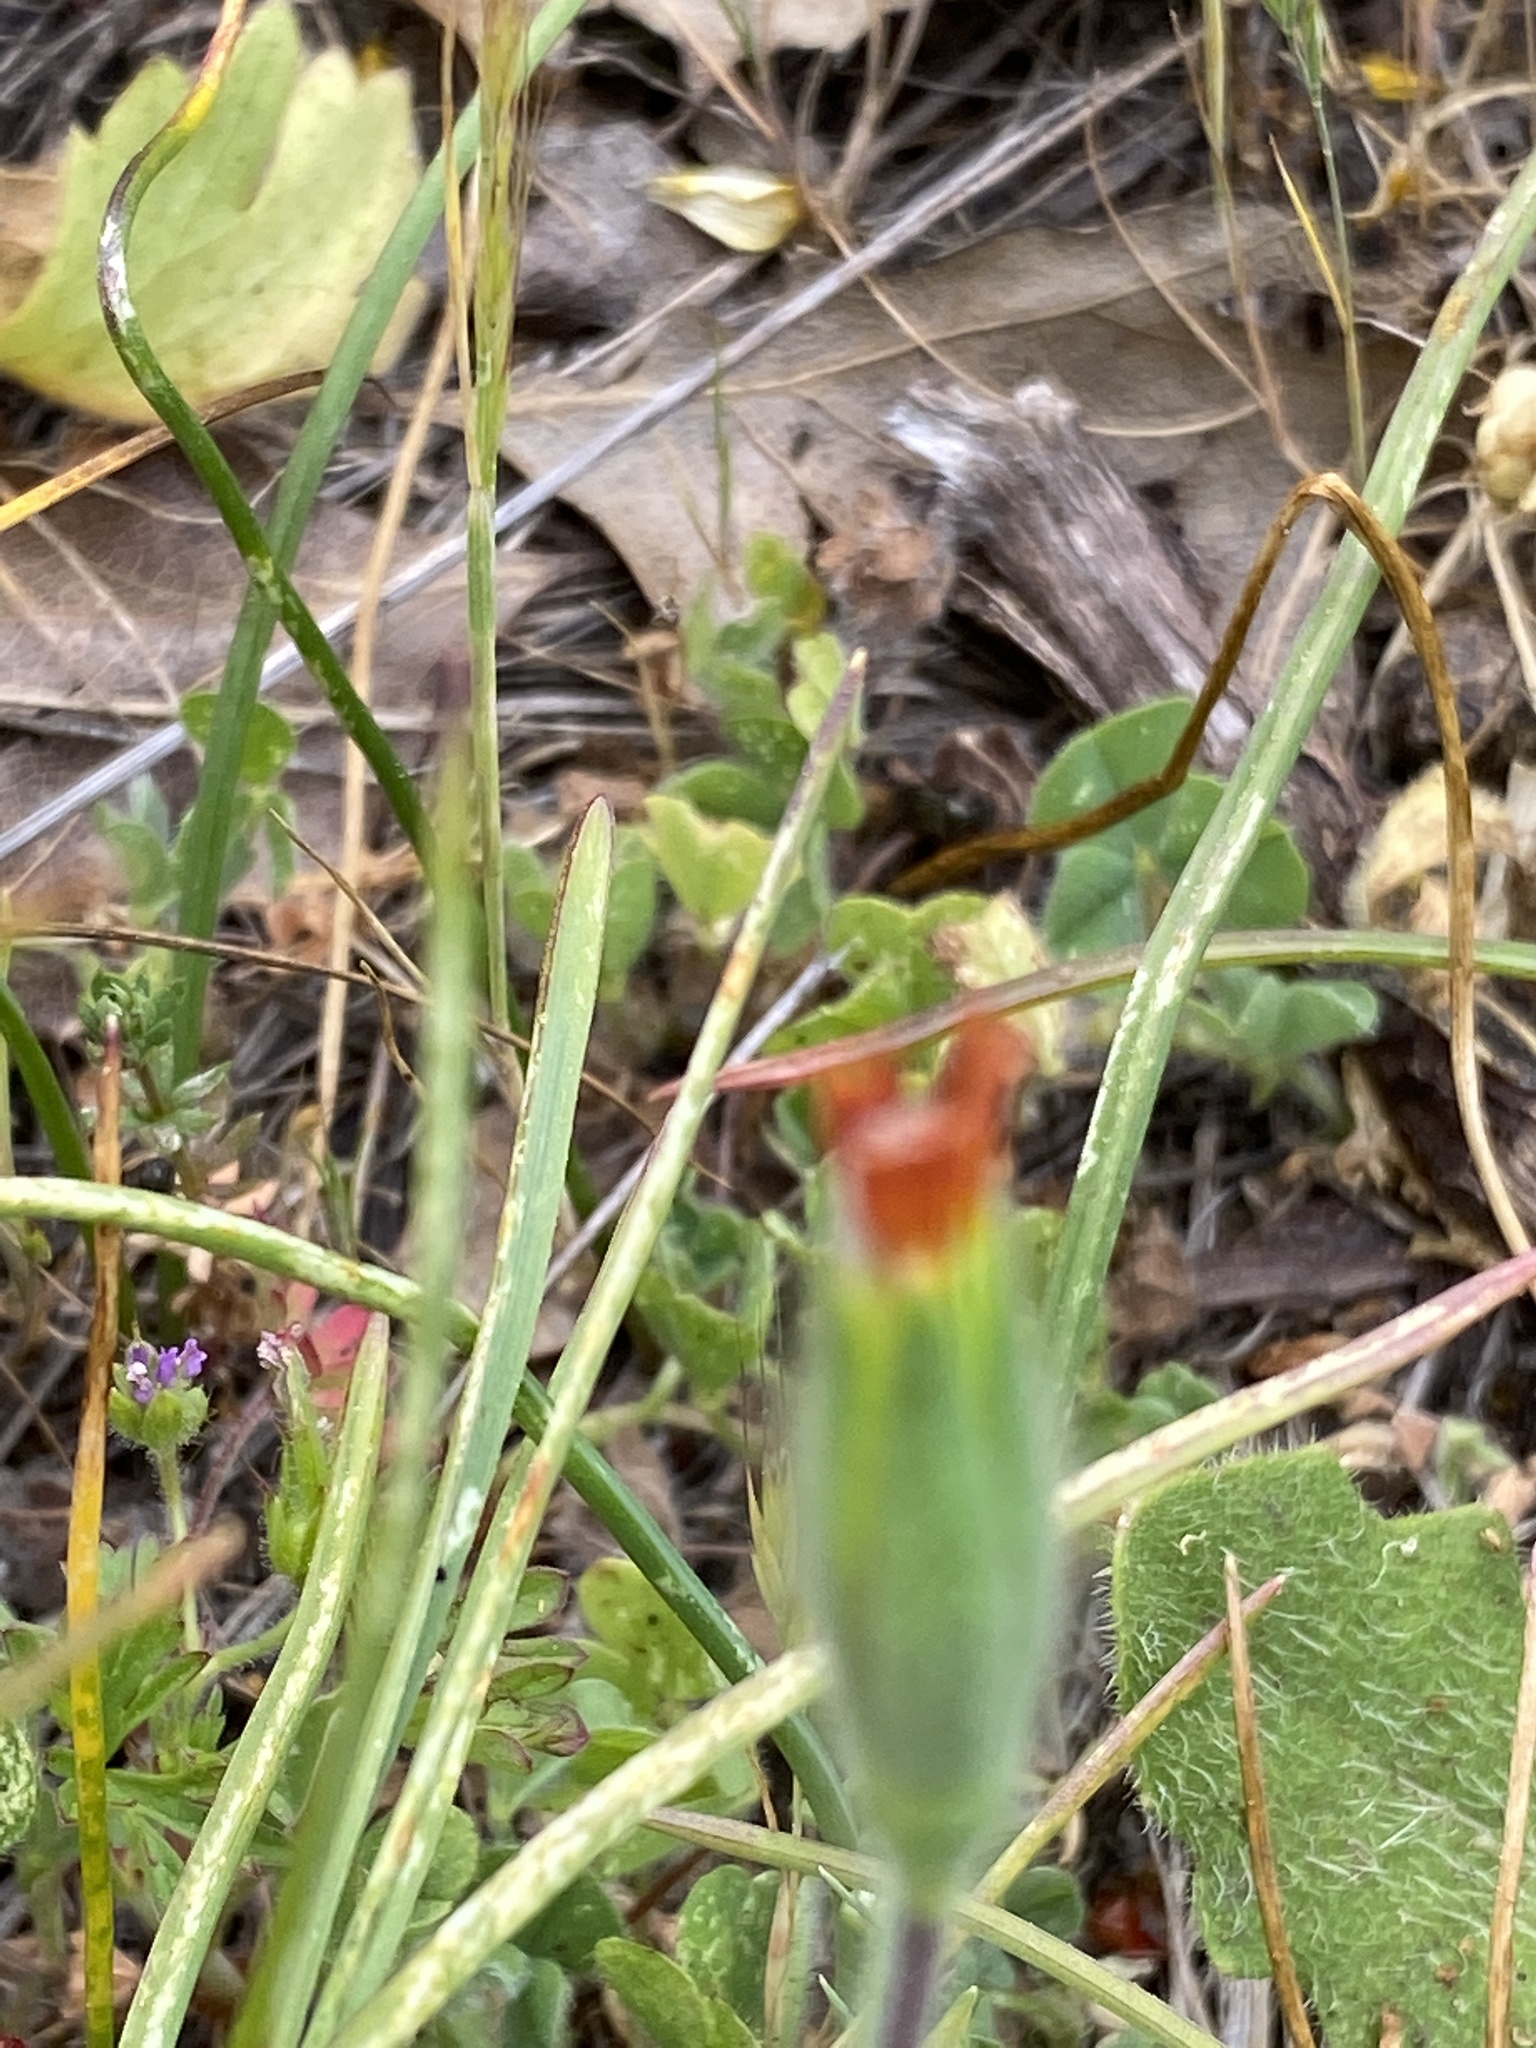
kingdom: Plantae
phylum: Tracheophyta
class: Magnoliopsida
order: Asterales
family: Asteraceae
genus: Achyrachaena
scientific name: Achyrachaena mollis
